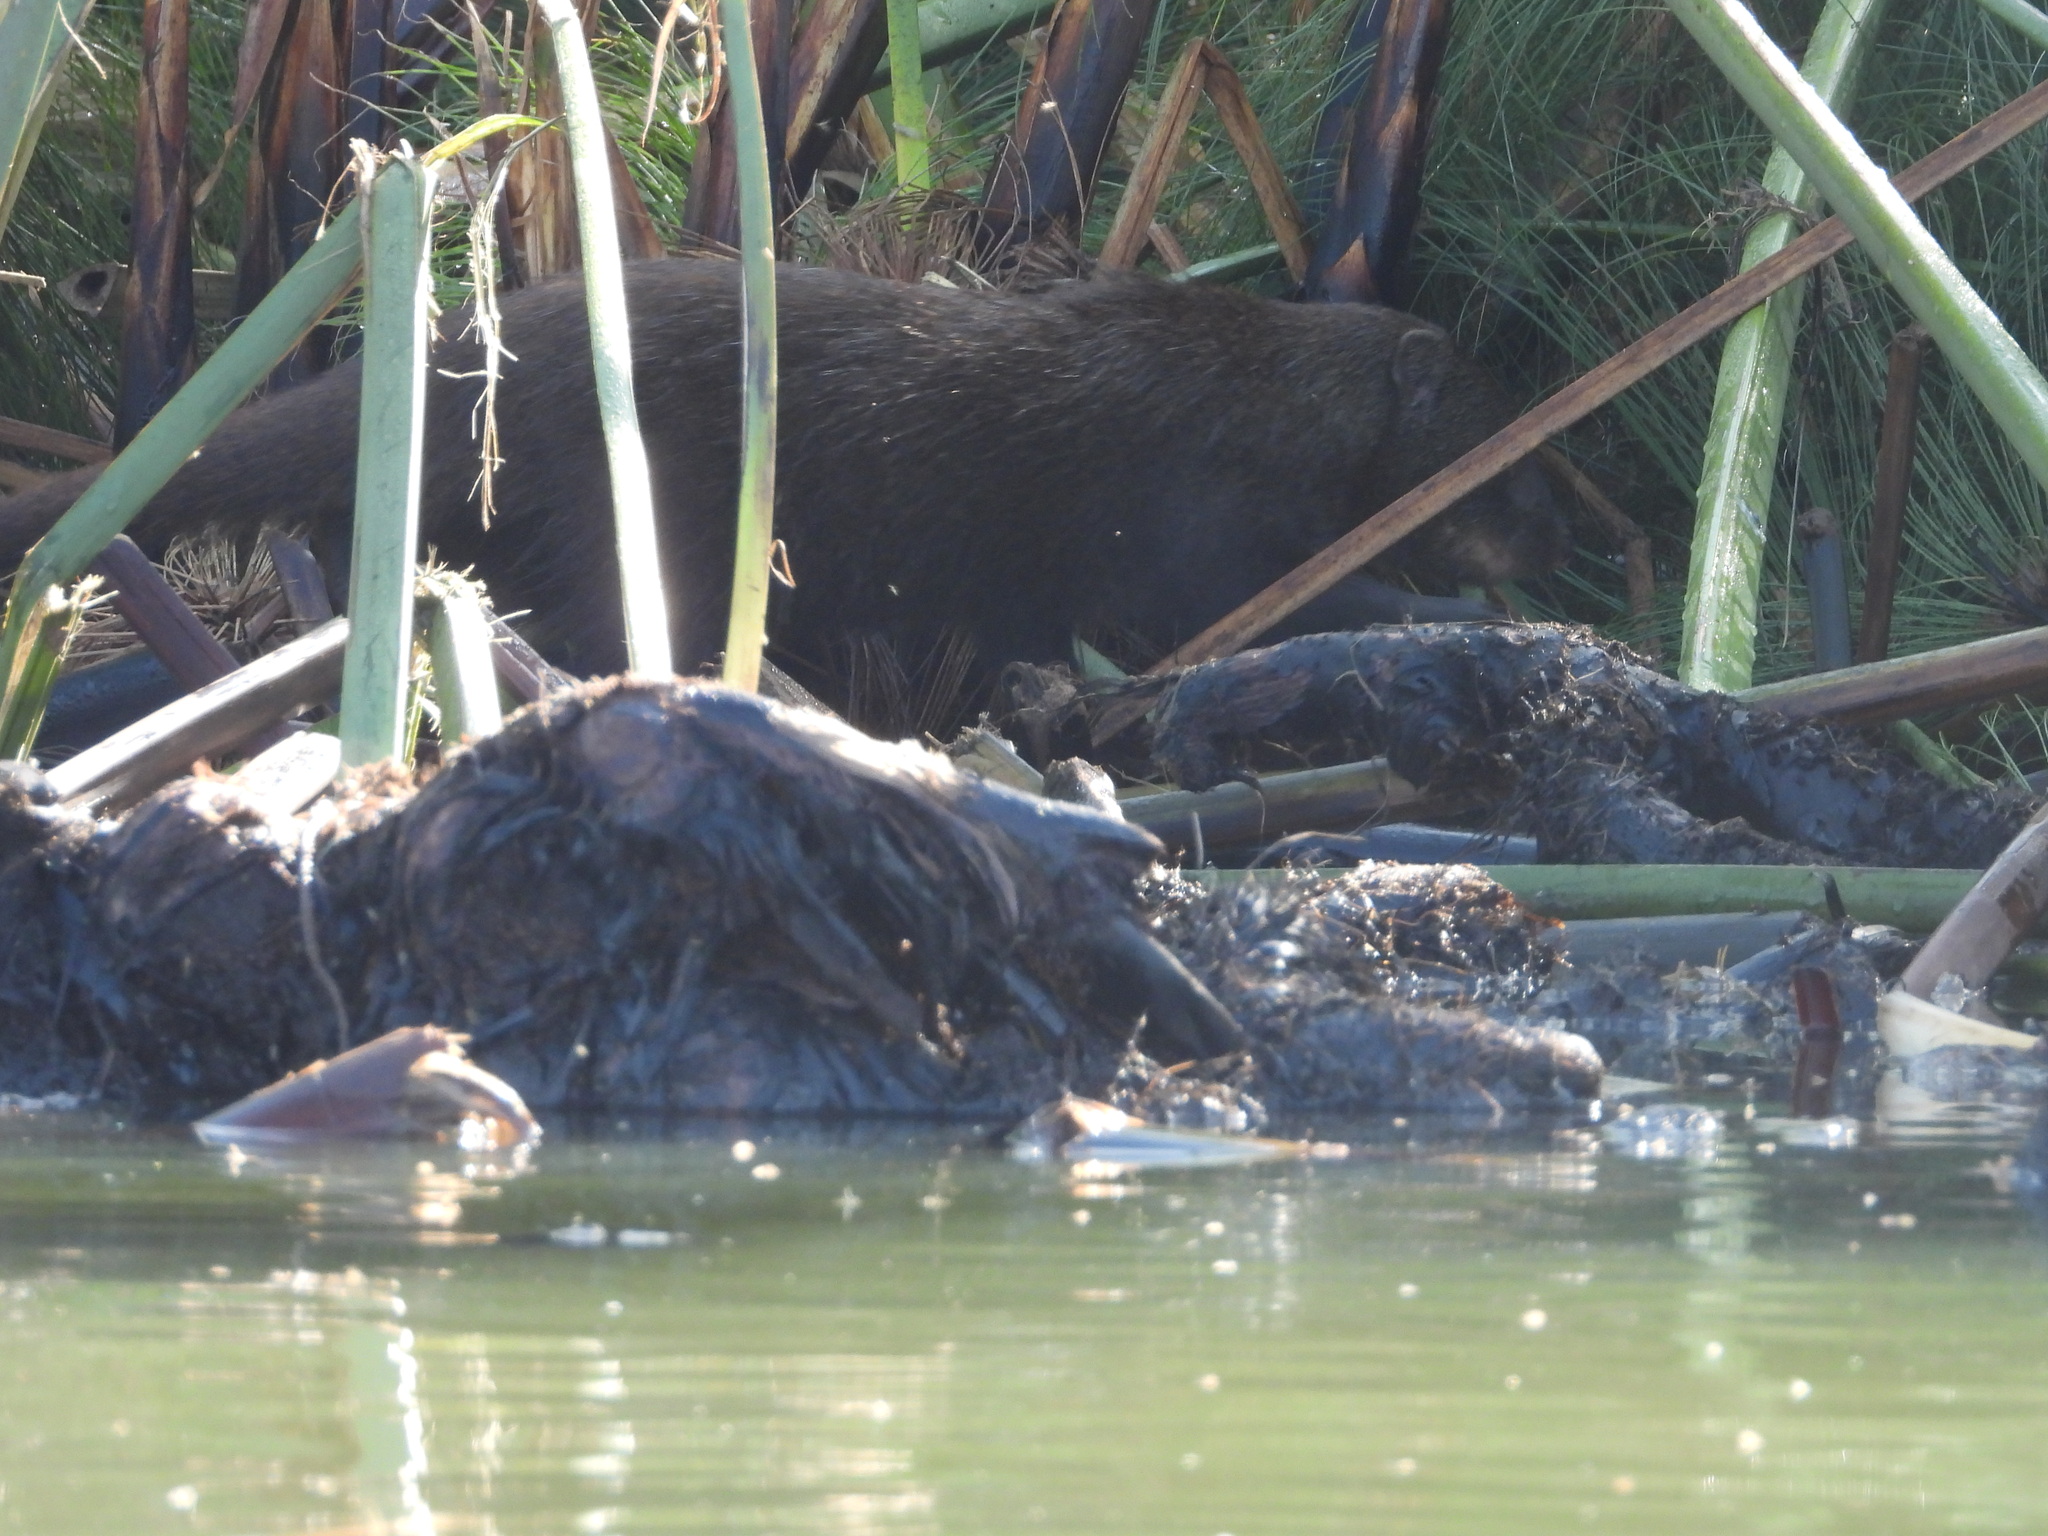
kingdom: Animalia
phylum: Chordata
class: Mammalia
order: Carnivora
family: Herpestidae
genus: Atilax
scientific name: Atilax paludinosus
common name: Marsh mongoose
